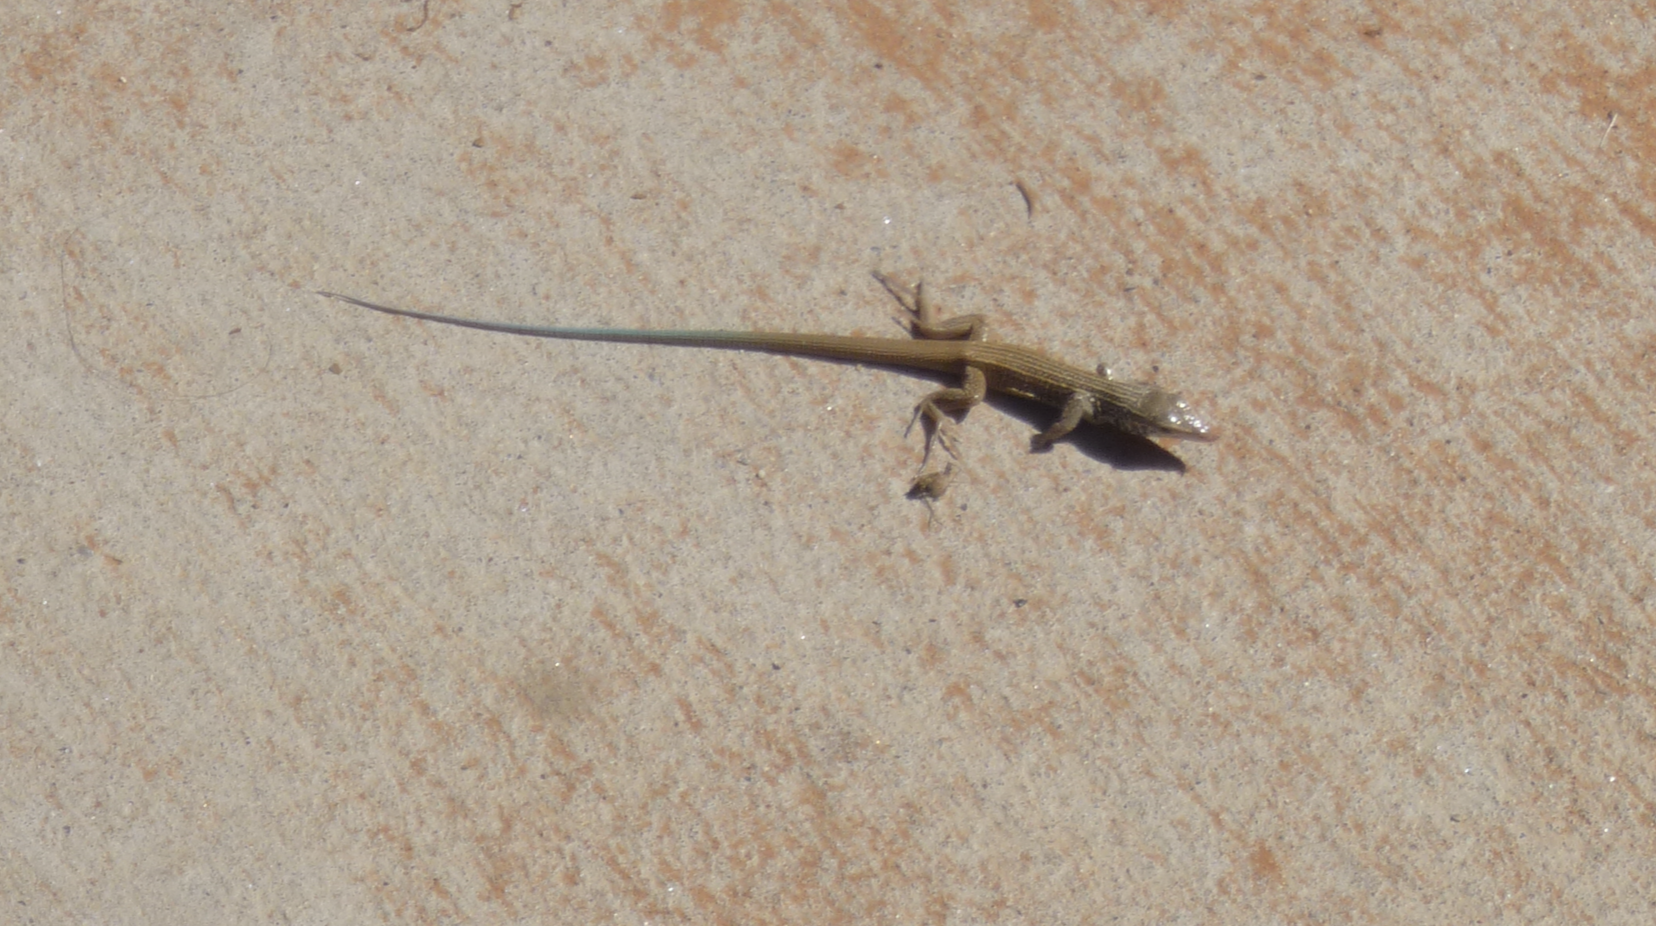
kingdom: Animalia
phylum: Chordata
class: Squamata
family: Teiidae
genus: Aspidoscelis
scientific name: Aspidoscelis tigris
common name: Tiger whiptail
